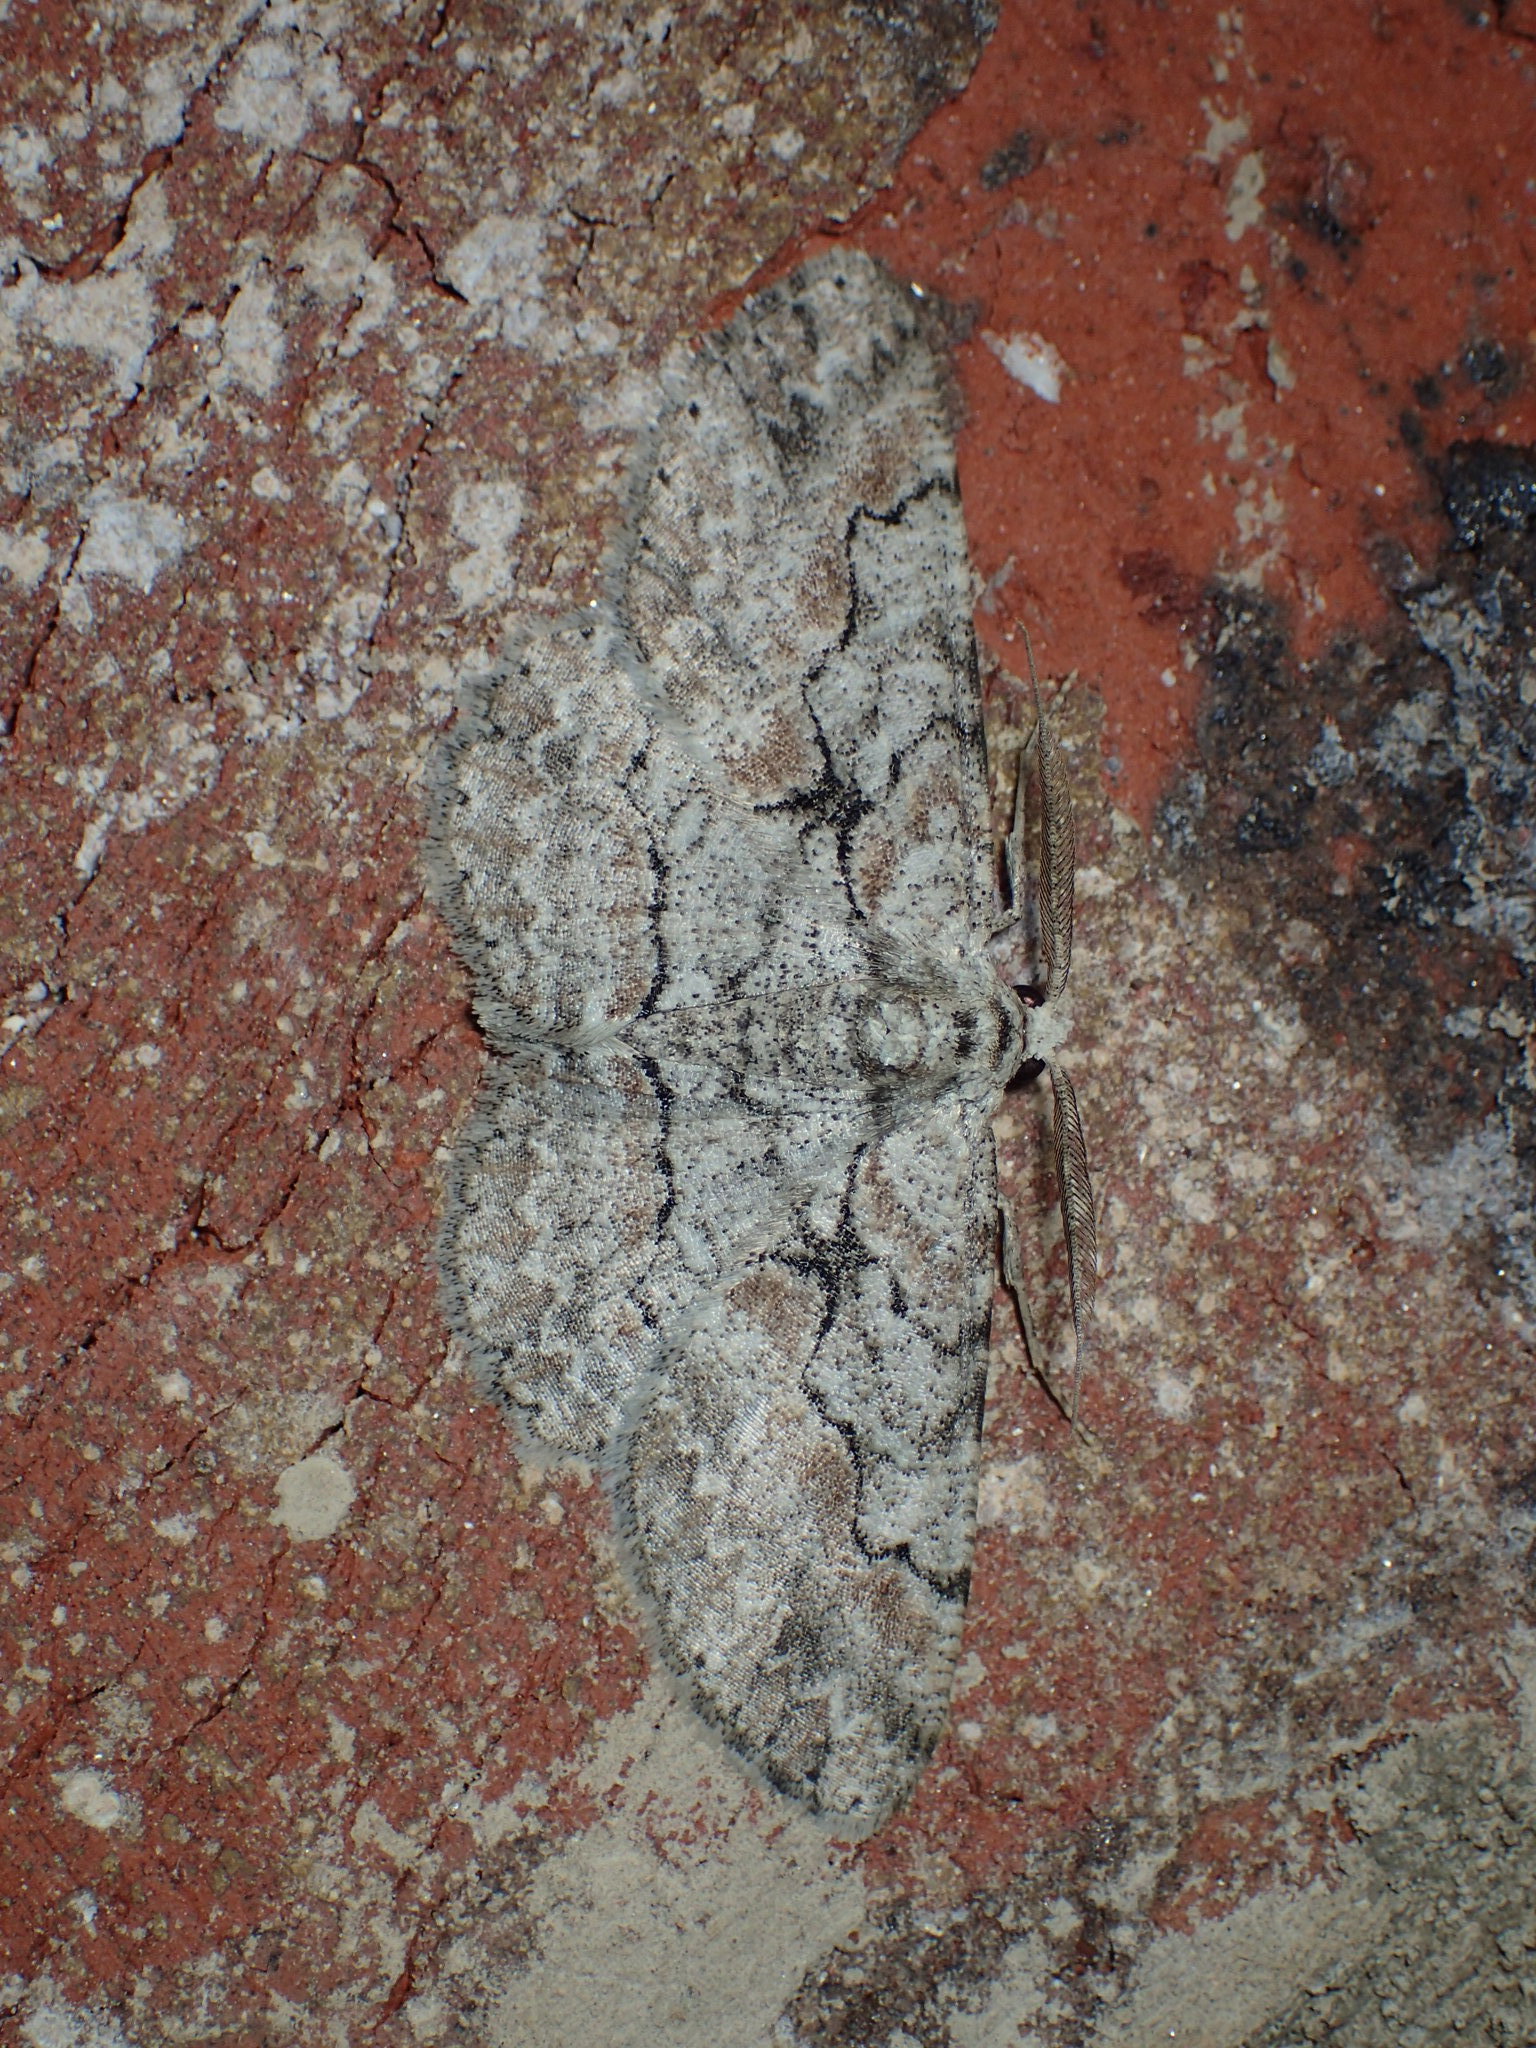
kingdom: Animalia
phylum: Arthropoda
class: Insecta
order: Lepidoptera
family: Geometridae
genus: Iridopsis
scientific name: Iridopsis defectaria
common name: Brown-shaded gray
